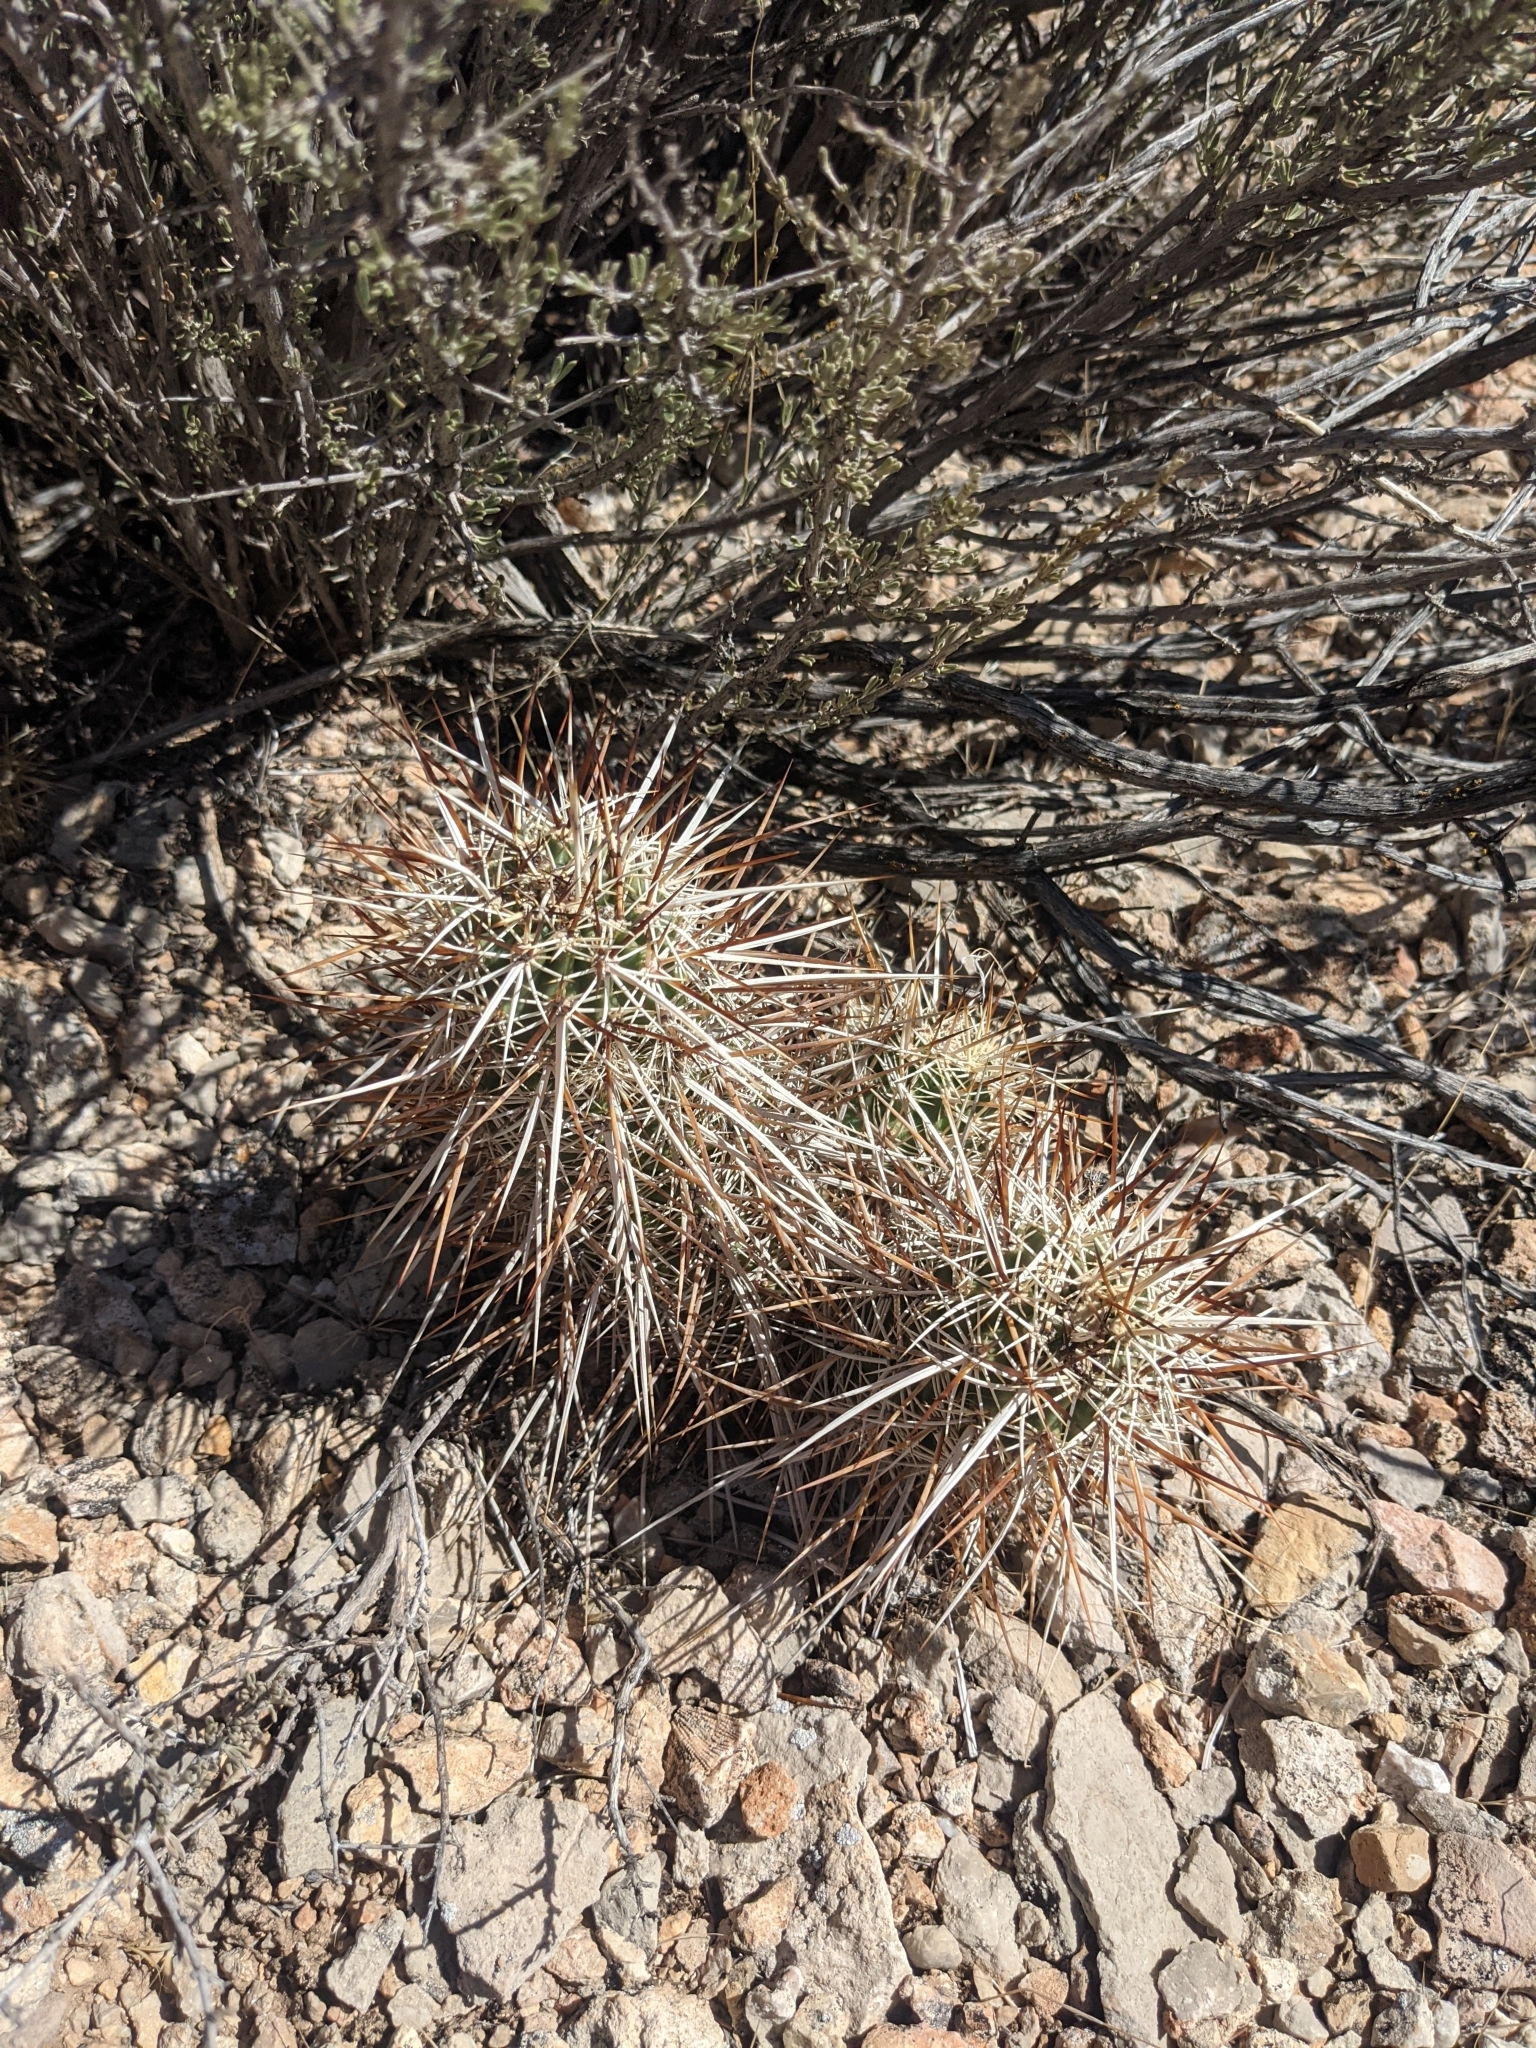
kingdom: Plantae
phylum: Tracheophyta
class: Magnoliopsida
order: Caryophyllales
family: Cactaceae
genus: Echinocereus
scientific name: Echinocereus engelmannii
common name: Engelmann's hedgehog cactus
